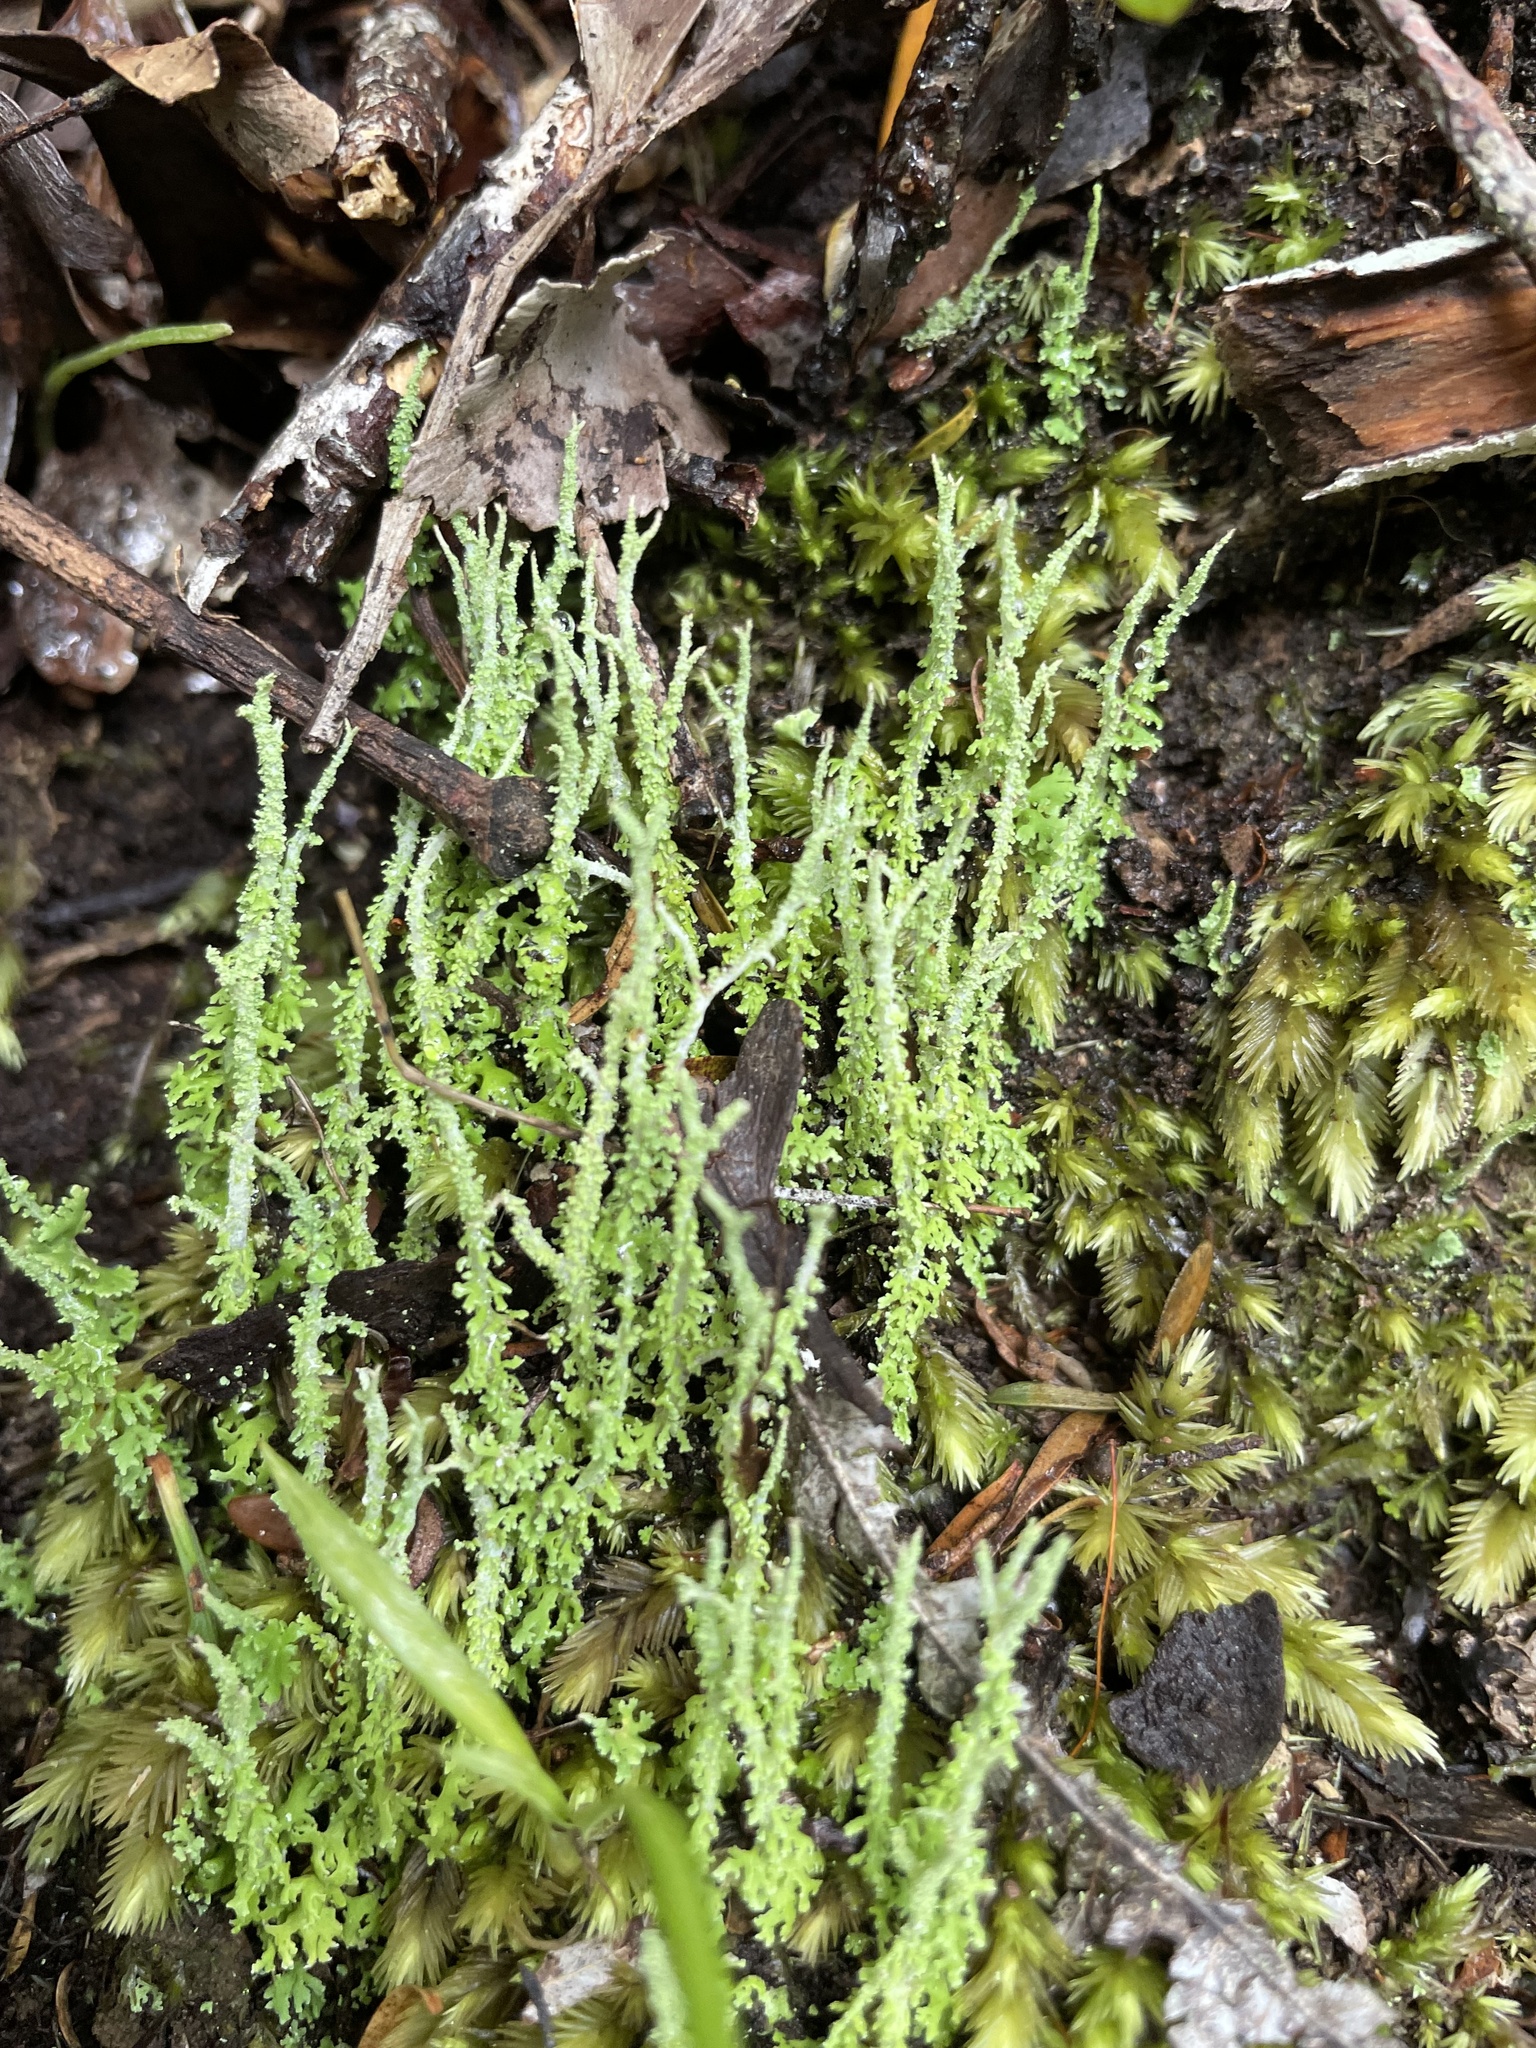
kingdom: Fungi
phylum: Ascomycota
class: Lecanoromycetes
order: Lecanorales
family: Cladoniaceae
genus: Cladonia
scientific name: Cladonia darwinii
